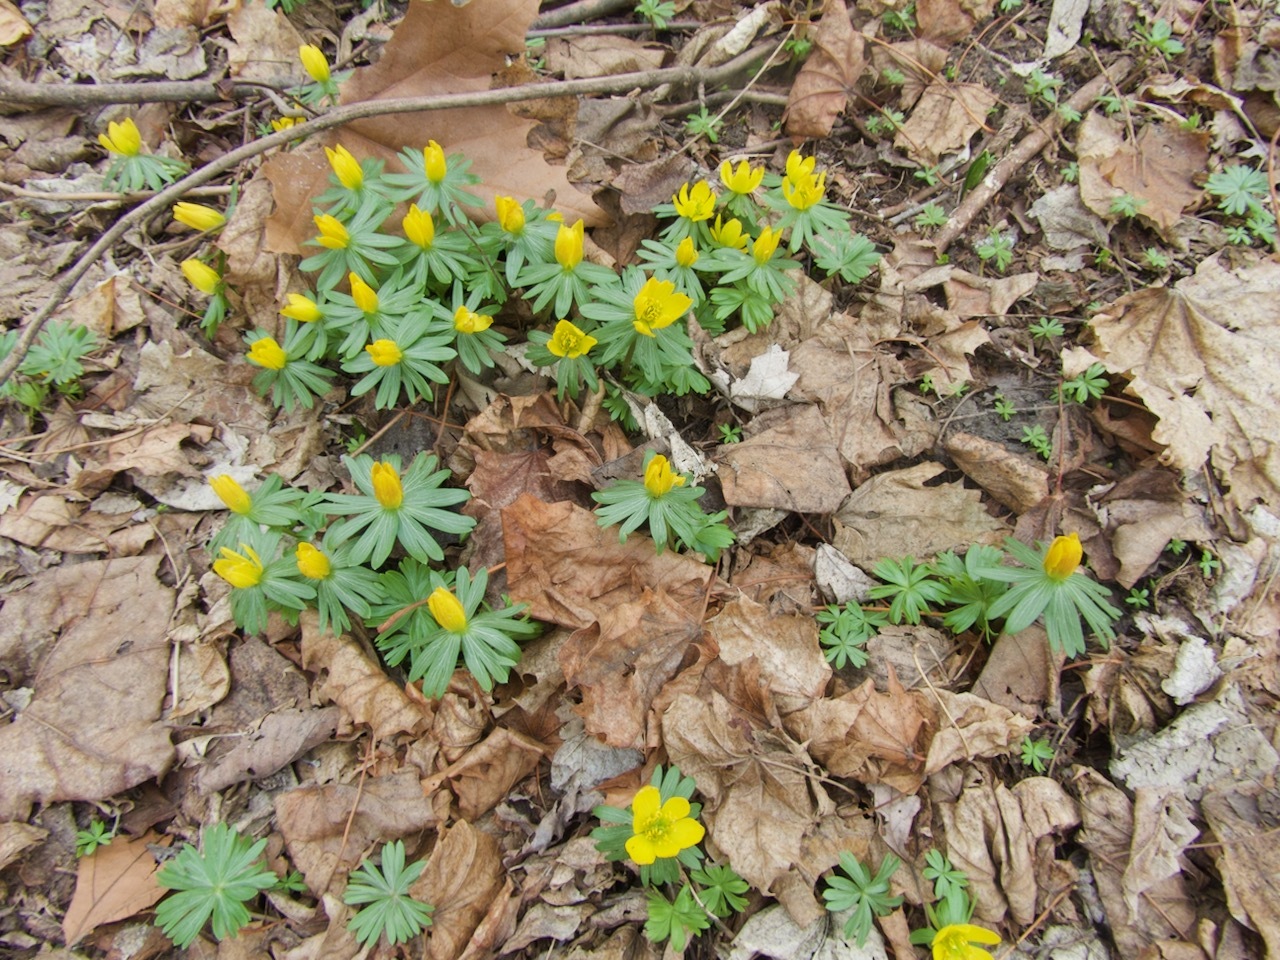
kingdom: Plantae
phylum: Tracheophyta
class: Magnoliopsida
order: Ranunculales
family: Ranunculaceae
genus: Eranthis
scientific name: Eranthis hyemalis
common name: Winter aconite
